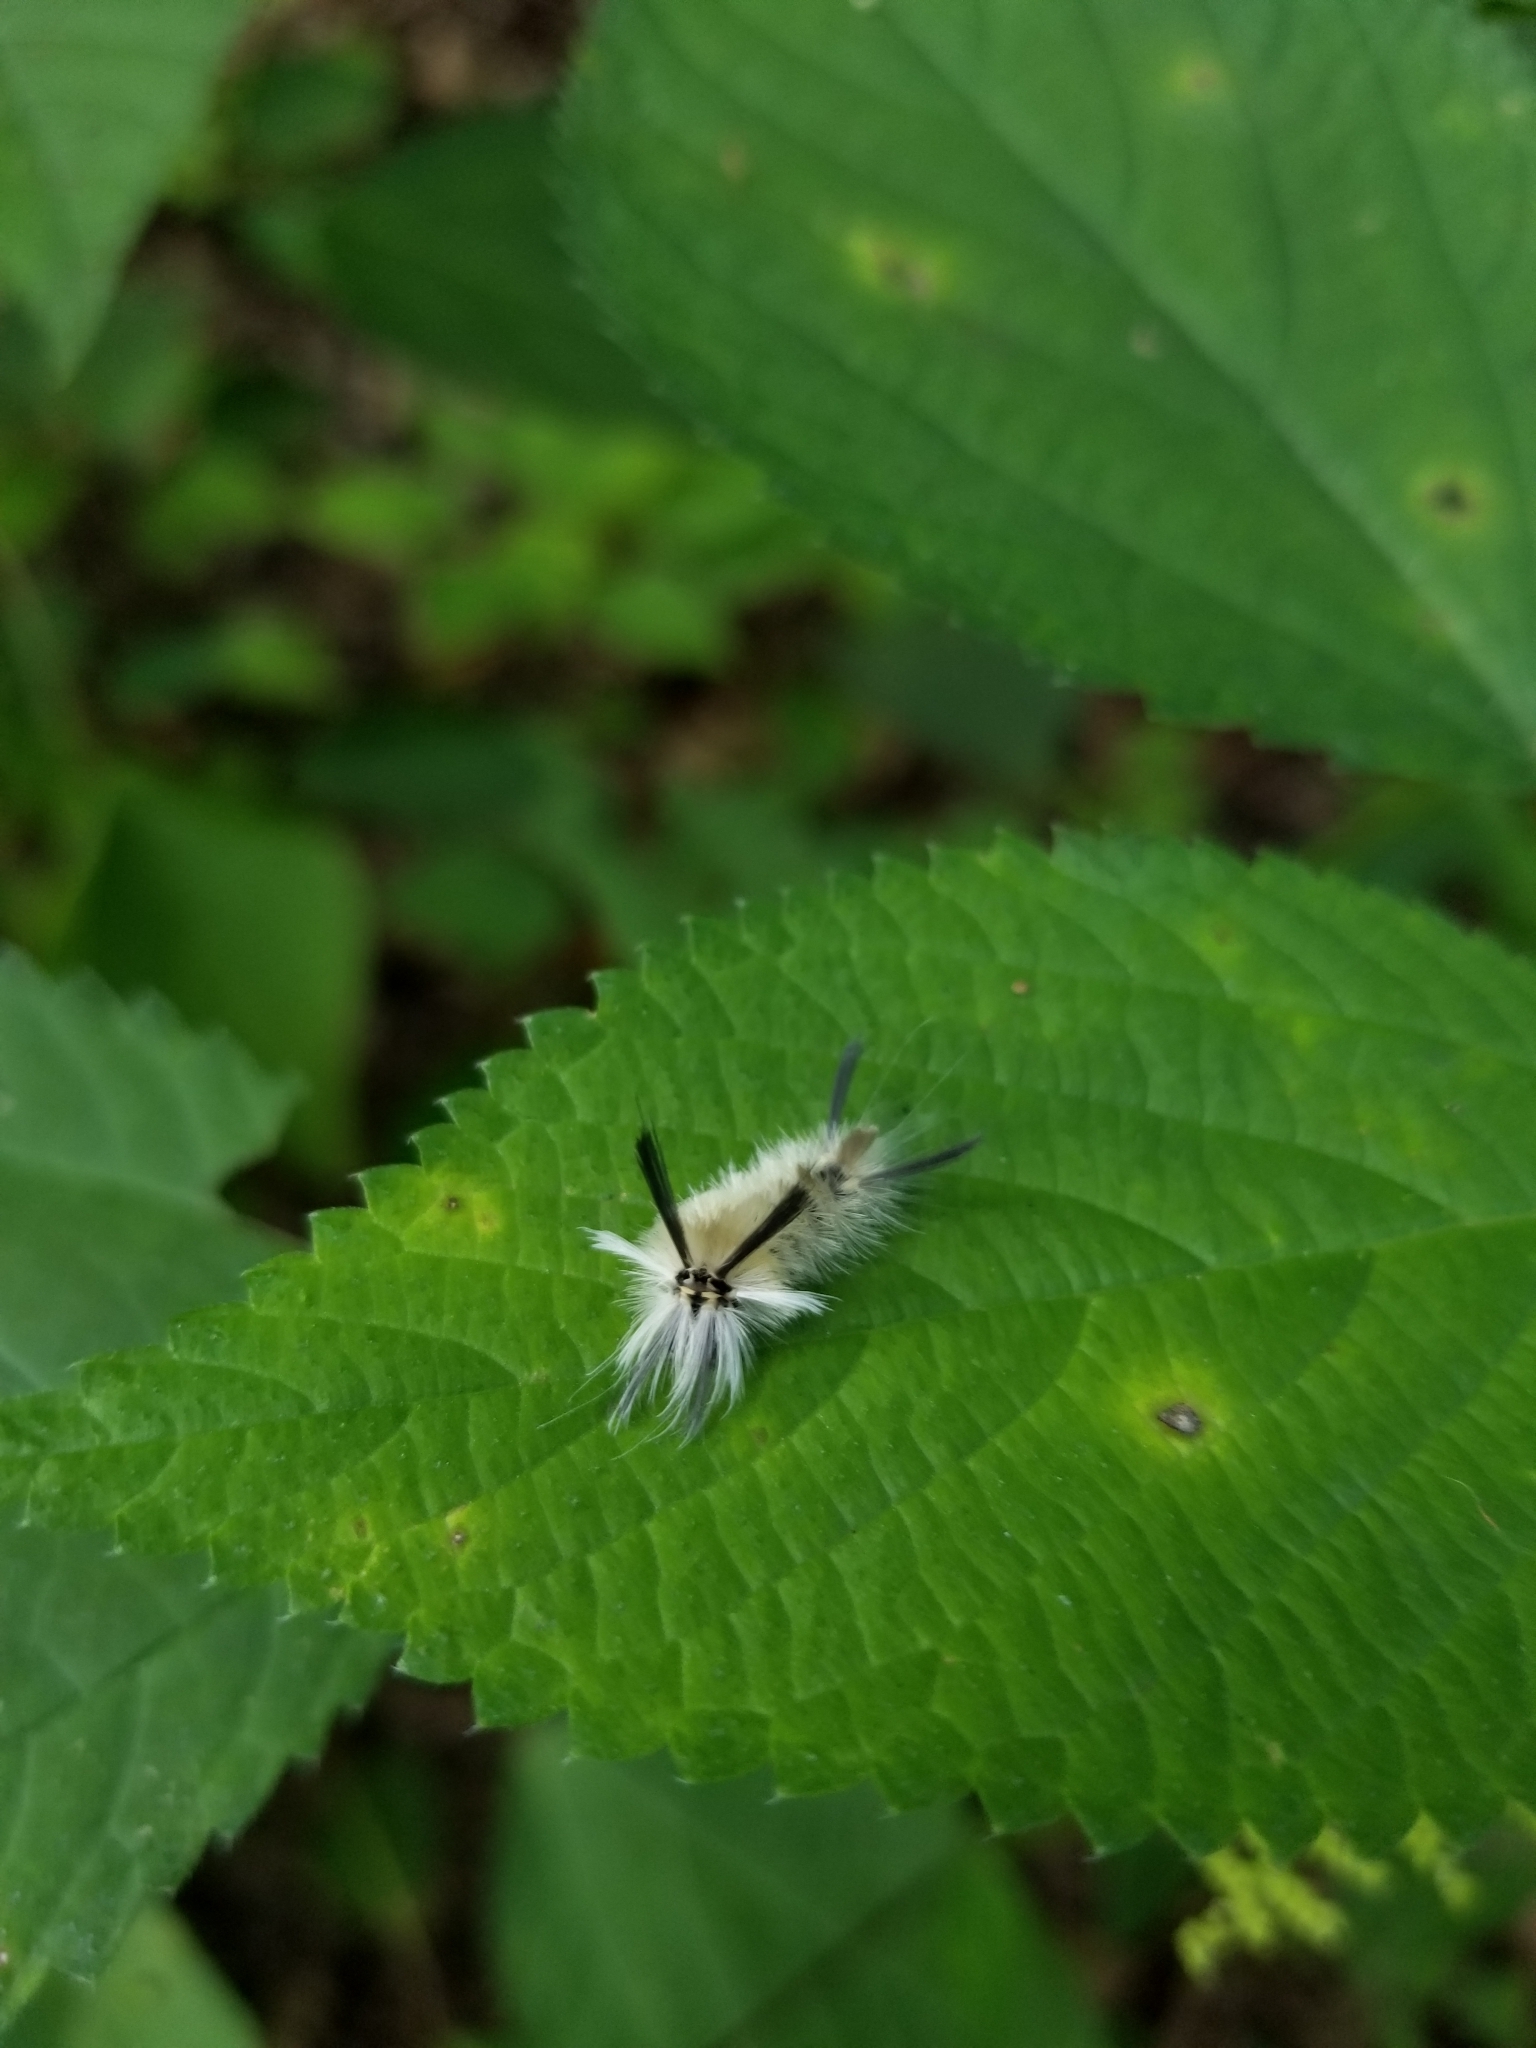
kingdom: Animalia
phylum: Arthropoda
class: Insecta
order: Lepidoptera
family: Erebidae
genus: Halysidota
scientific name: Halysidota tessellaris
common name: Banded tussock moth
